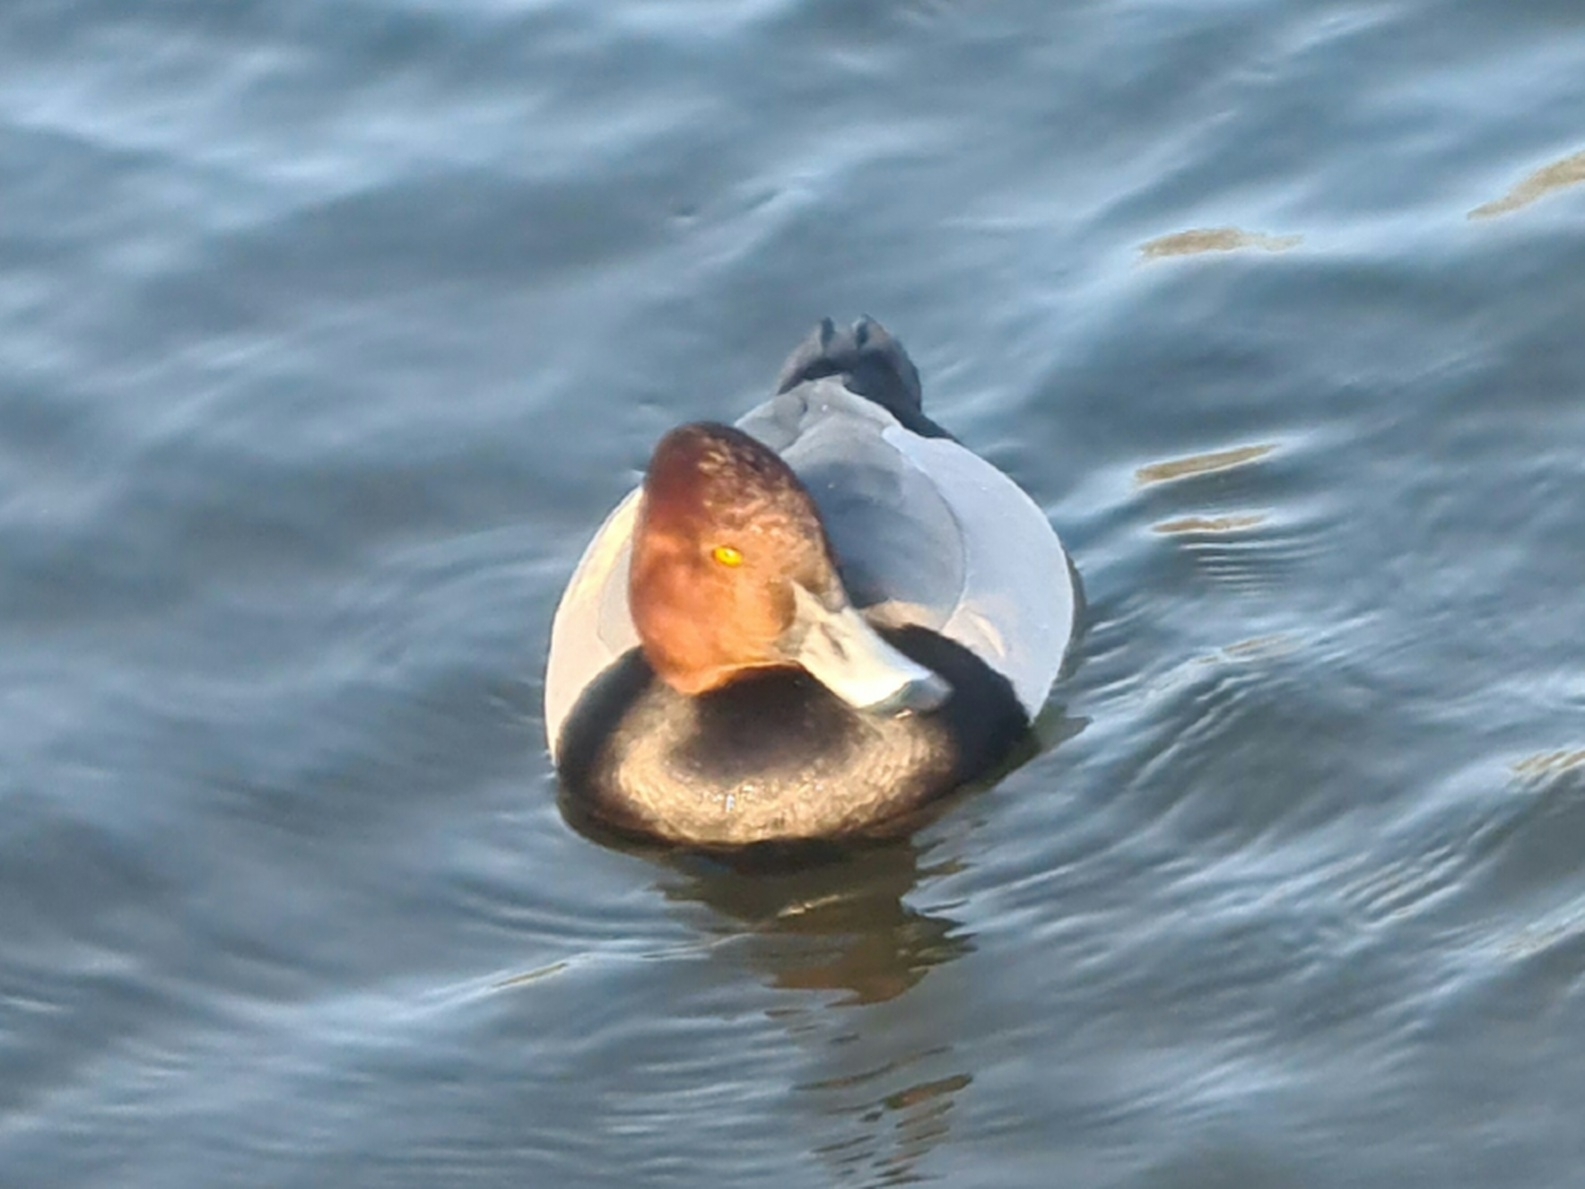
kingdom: Animalia
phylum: Chordata
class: Aves
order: Anseriformes
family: Anatidae
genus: Aythya
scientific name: Aythya ferina
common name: Common pochard
